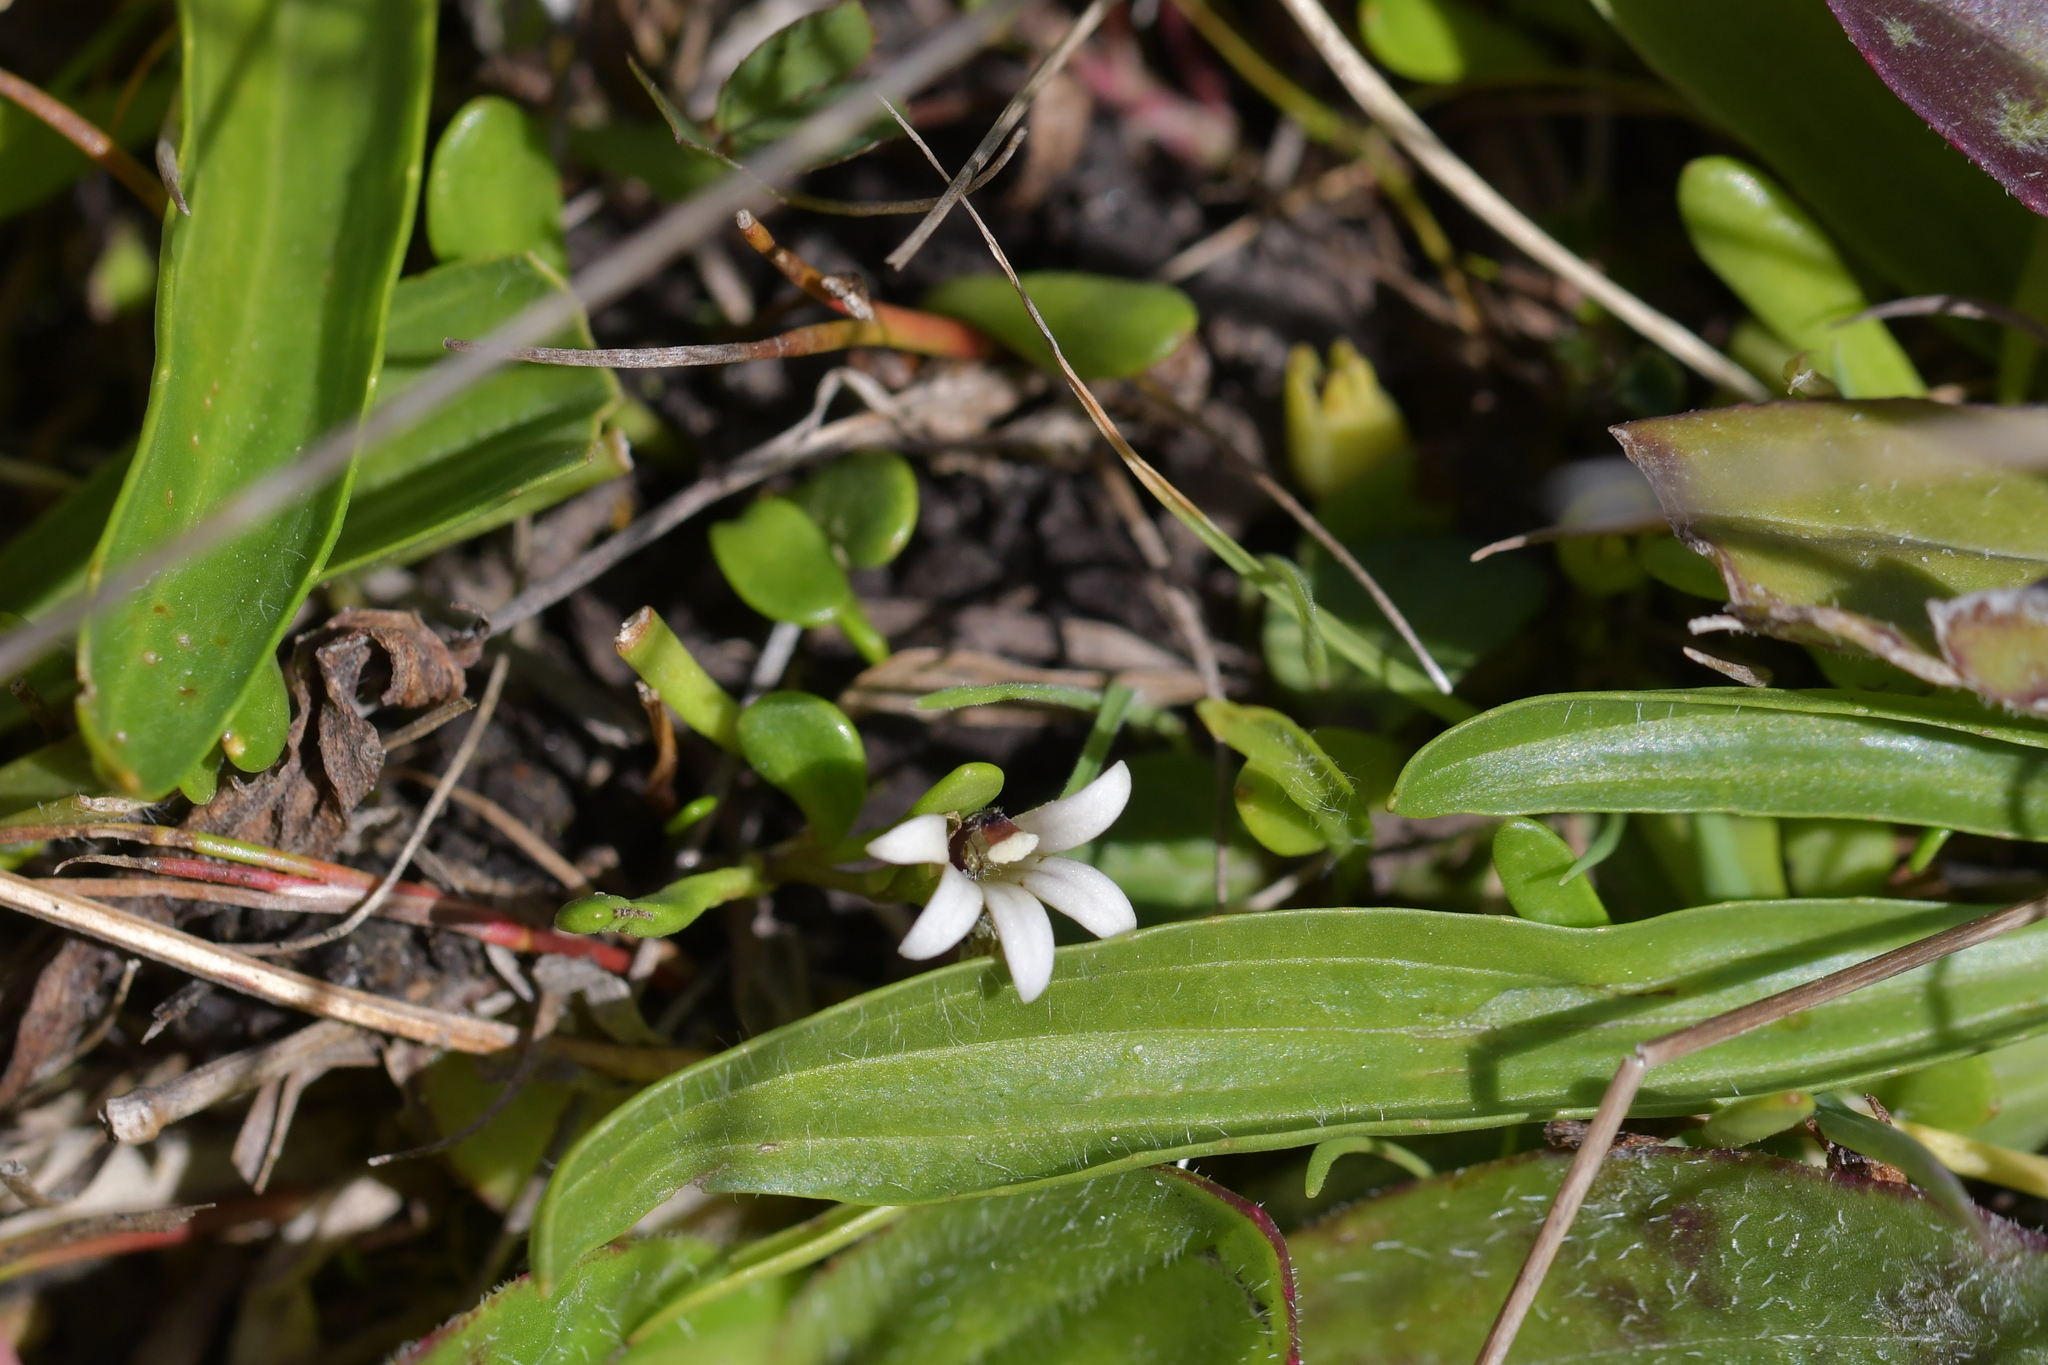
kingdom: Plantae
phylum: Tracheophyta
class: Magnoliopsida
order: Asterales
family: Goodeniaceae
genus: Goodenia
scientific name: Goodenia radicans
